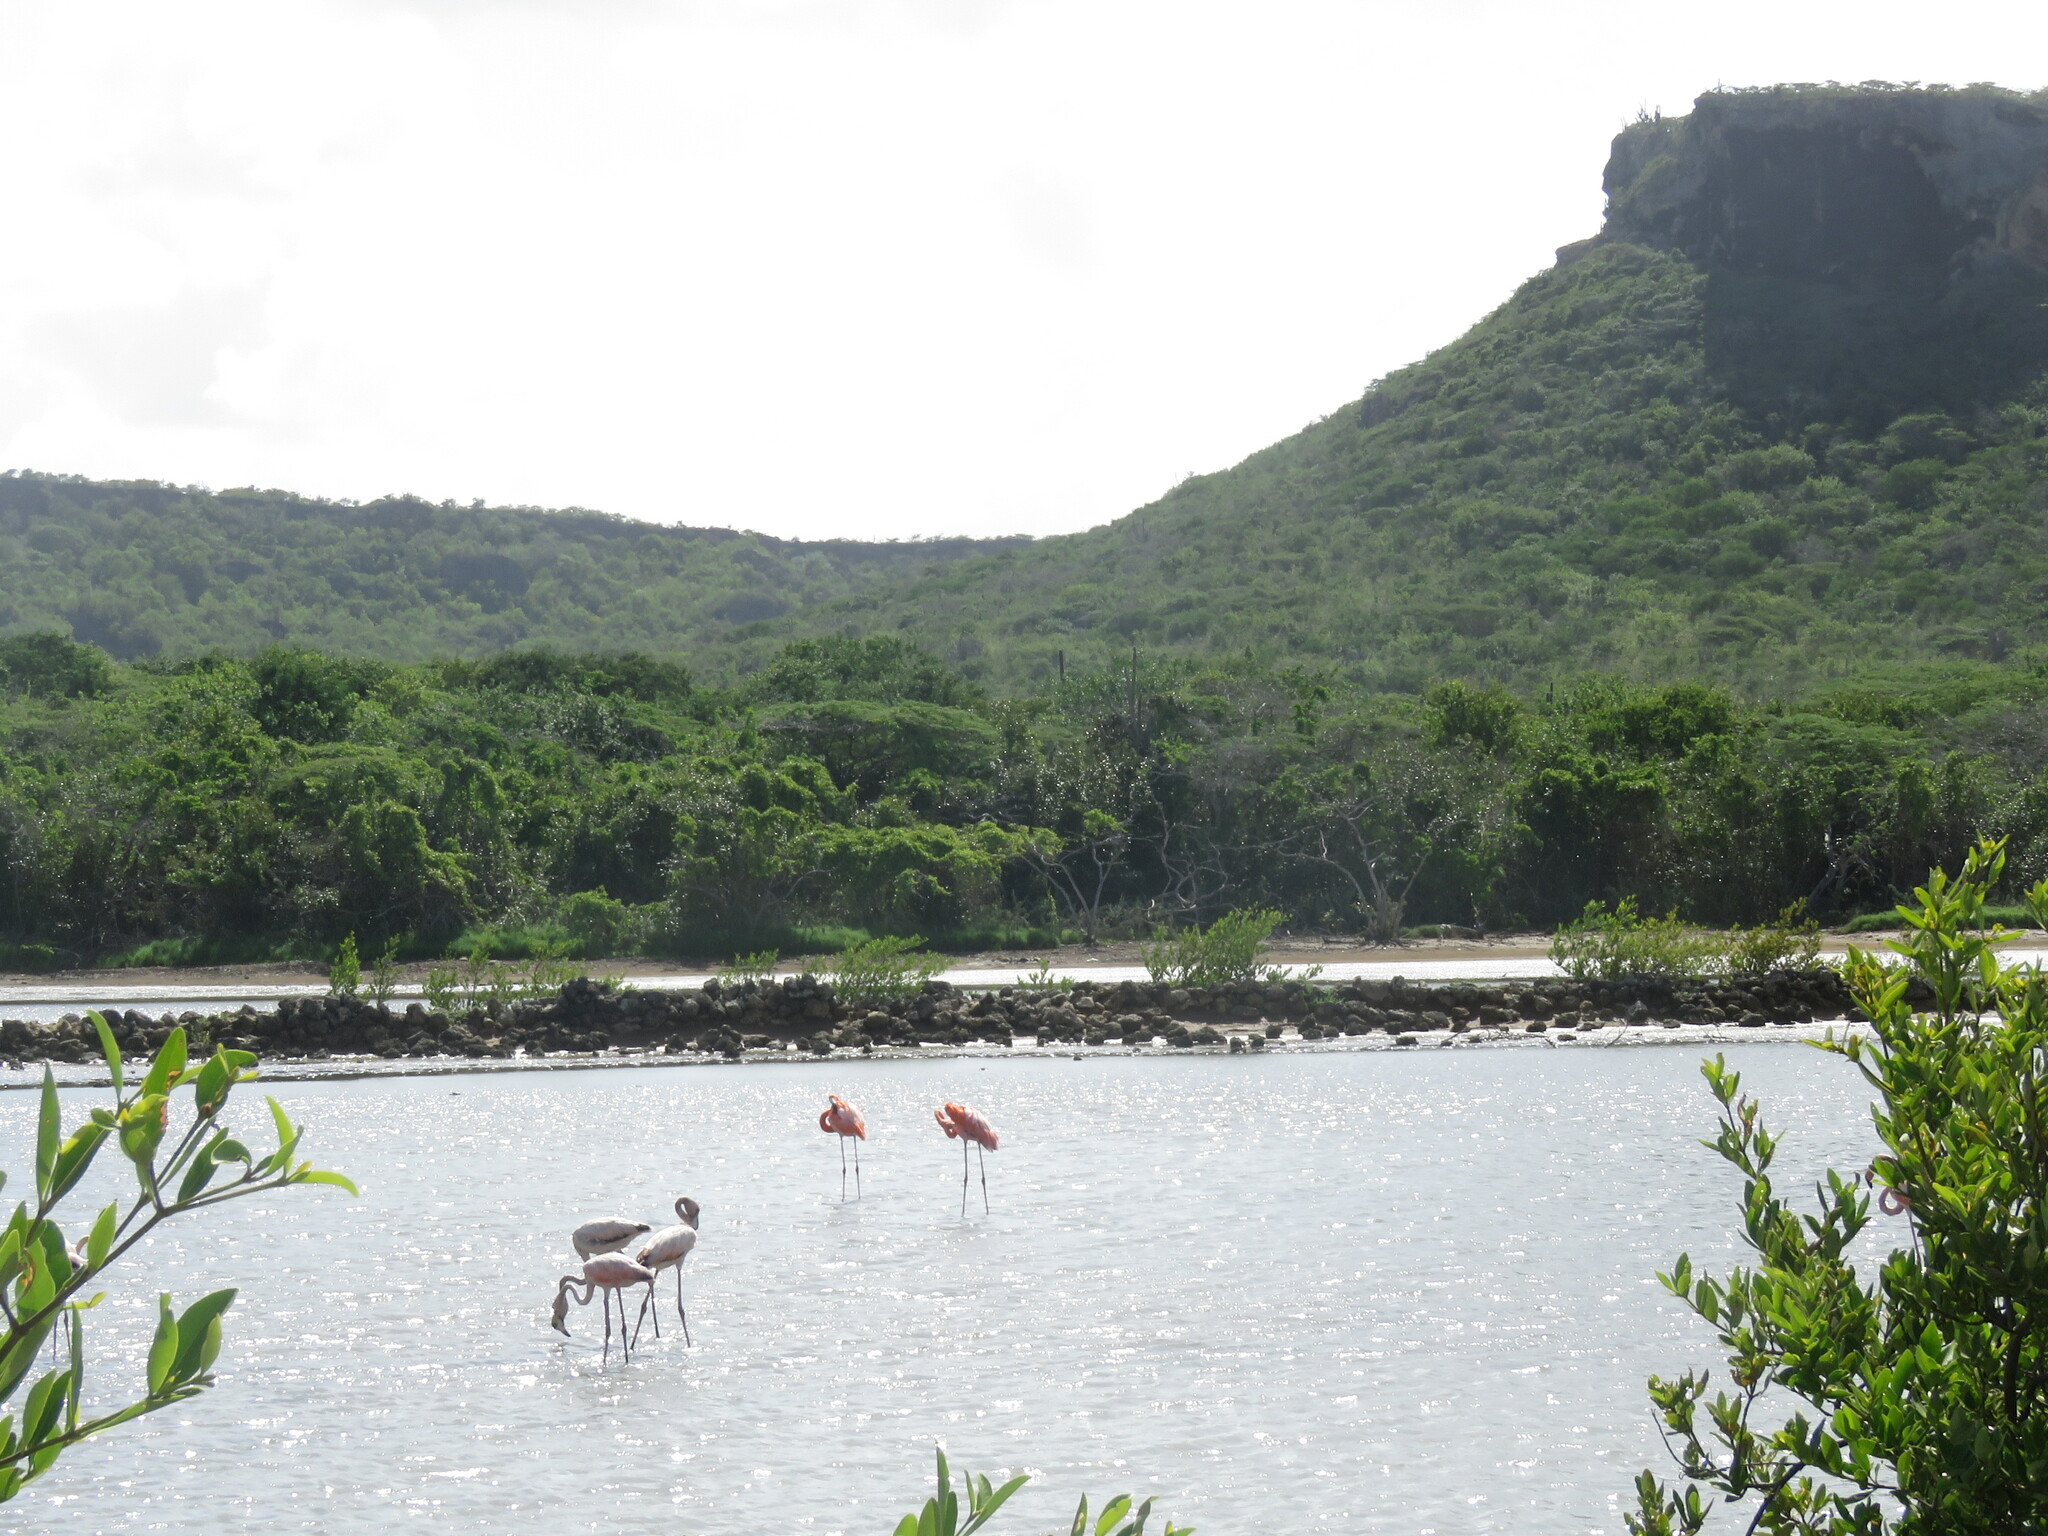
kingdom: Animalia
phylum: Chordata
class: Aves
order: Phoenicopteriformes
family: Phoenicopteridae
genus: Phoenicopterus
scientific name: Phoenicopterus ruber
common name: American flamingo
